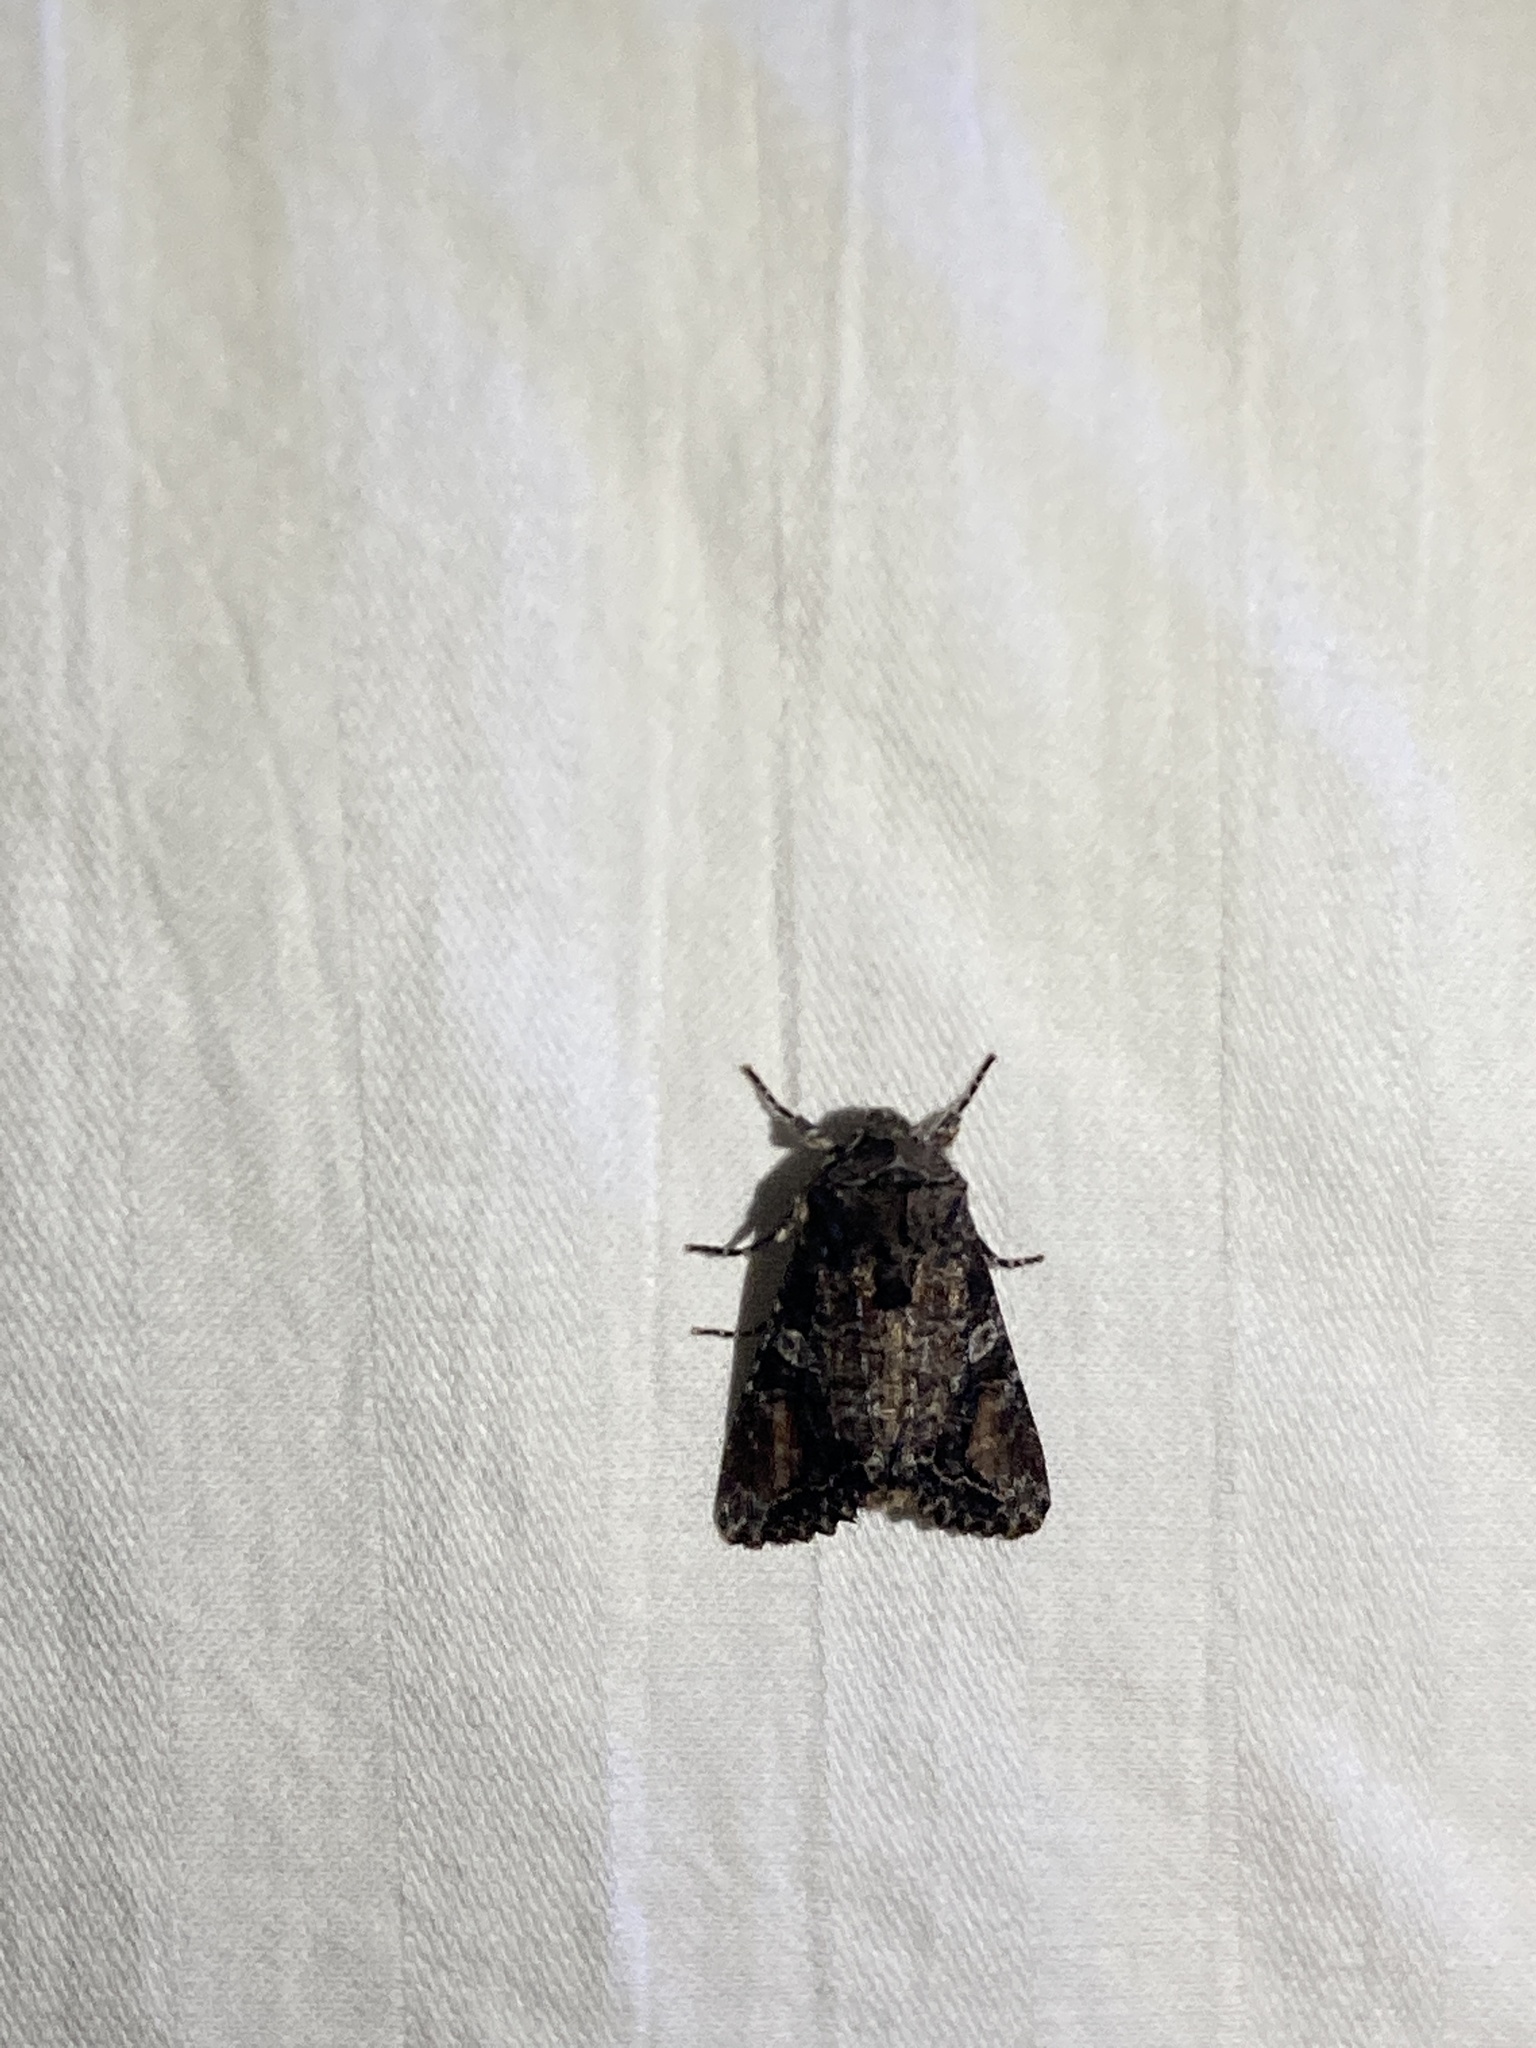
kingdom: Animalia
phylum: Arthropoda
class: Insecta
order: Lepidoptera
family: Noctuidae
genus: Egira
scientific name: Egira perlubens
